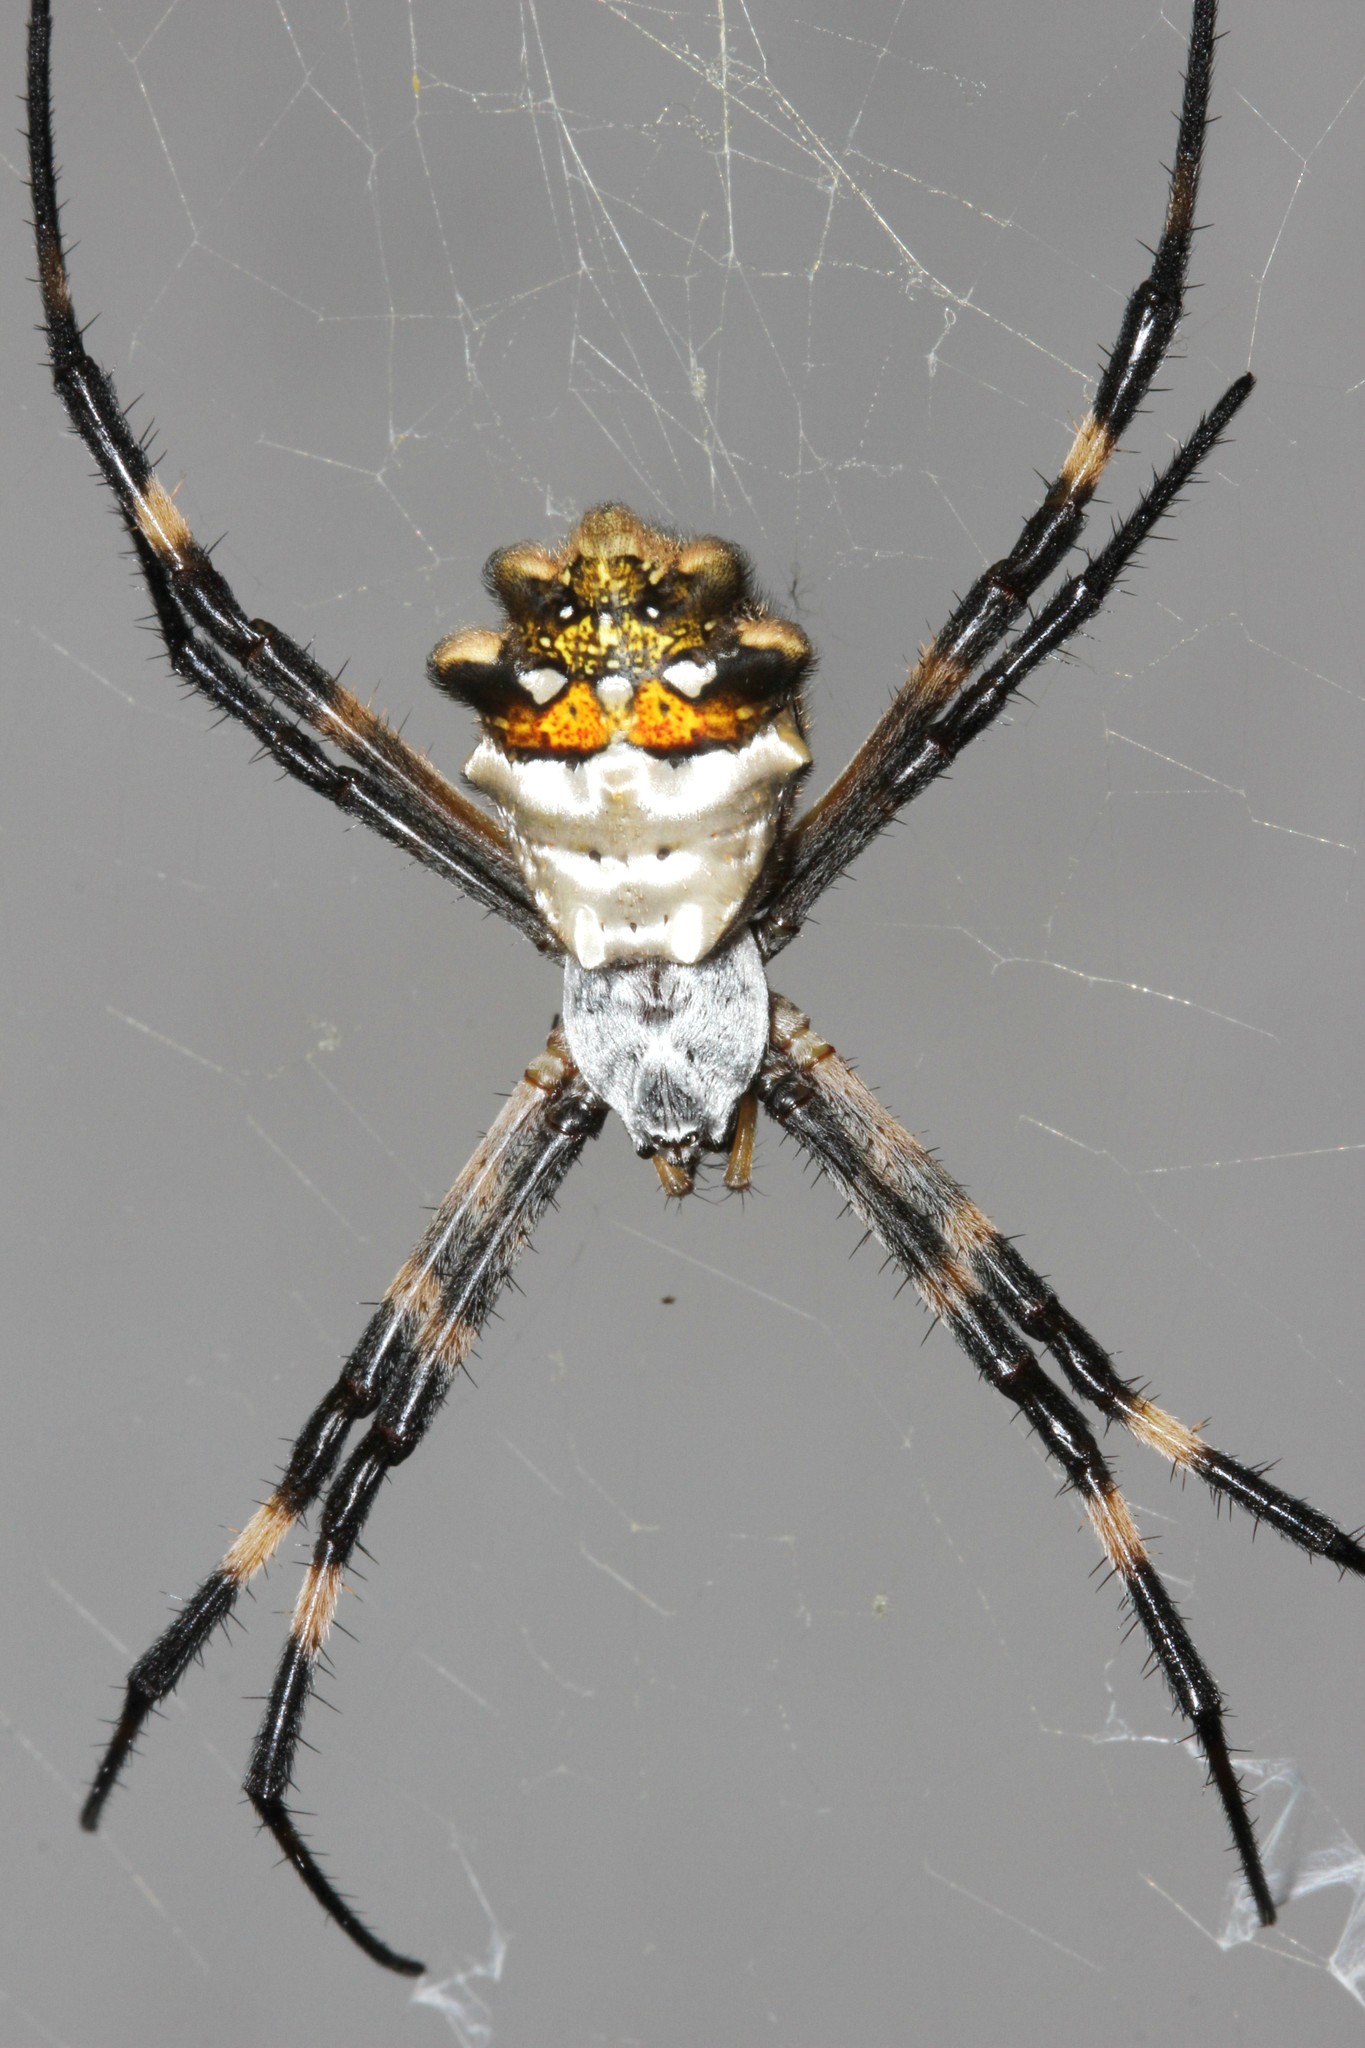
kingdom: Animalia
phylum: Arthropoda
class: Arachnida
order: Araneae
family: Araneidae
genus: Argiope
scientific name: Argiope argentata
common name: Orb weavers
